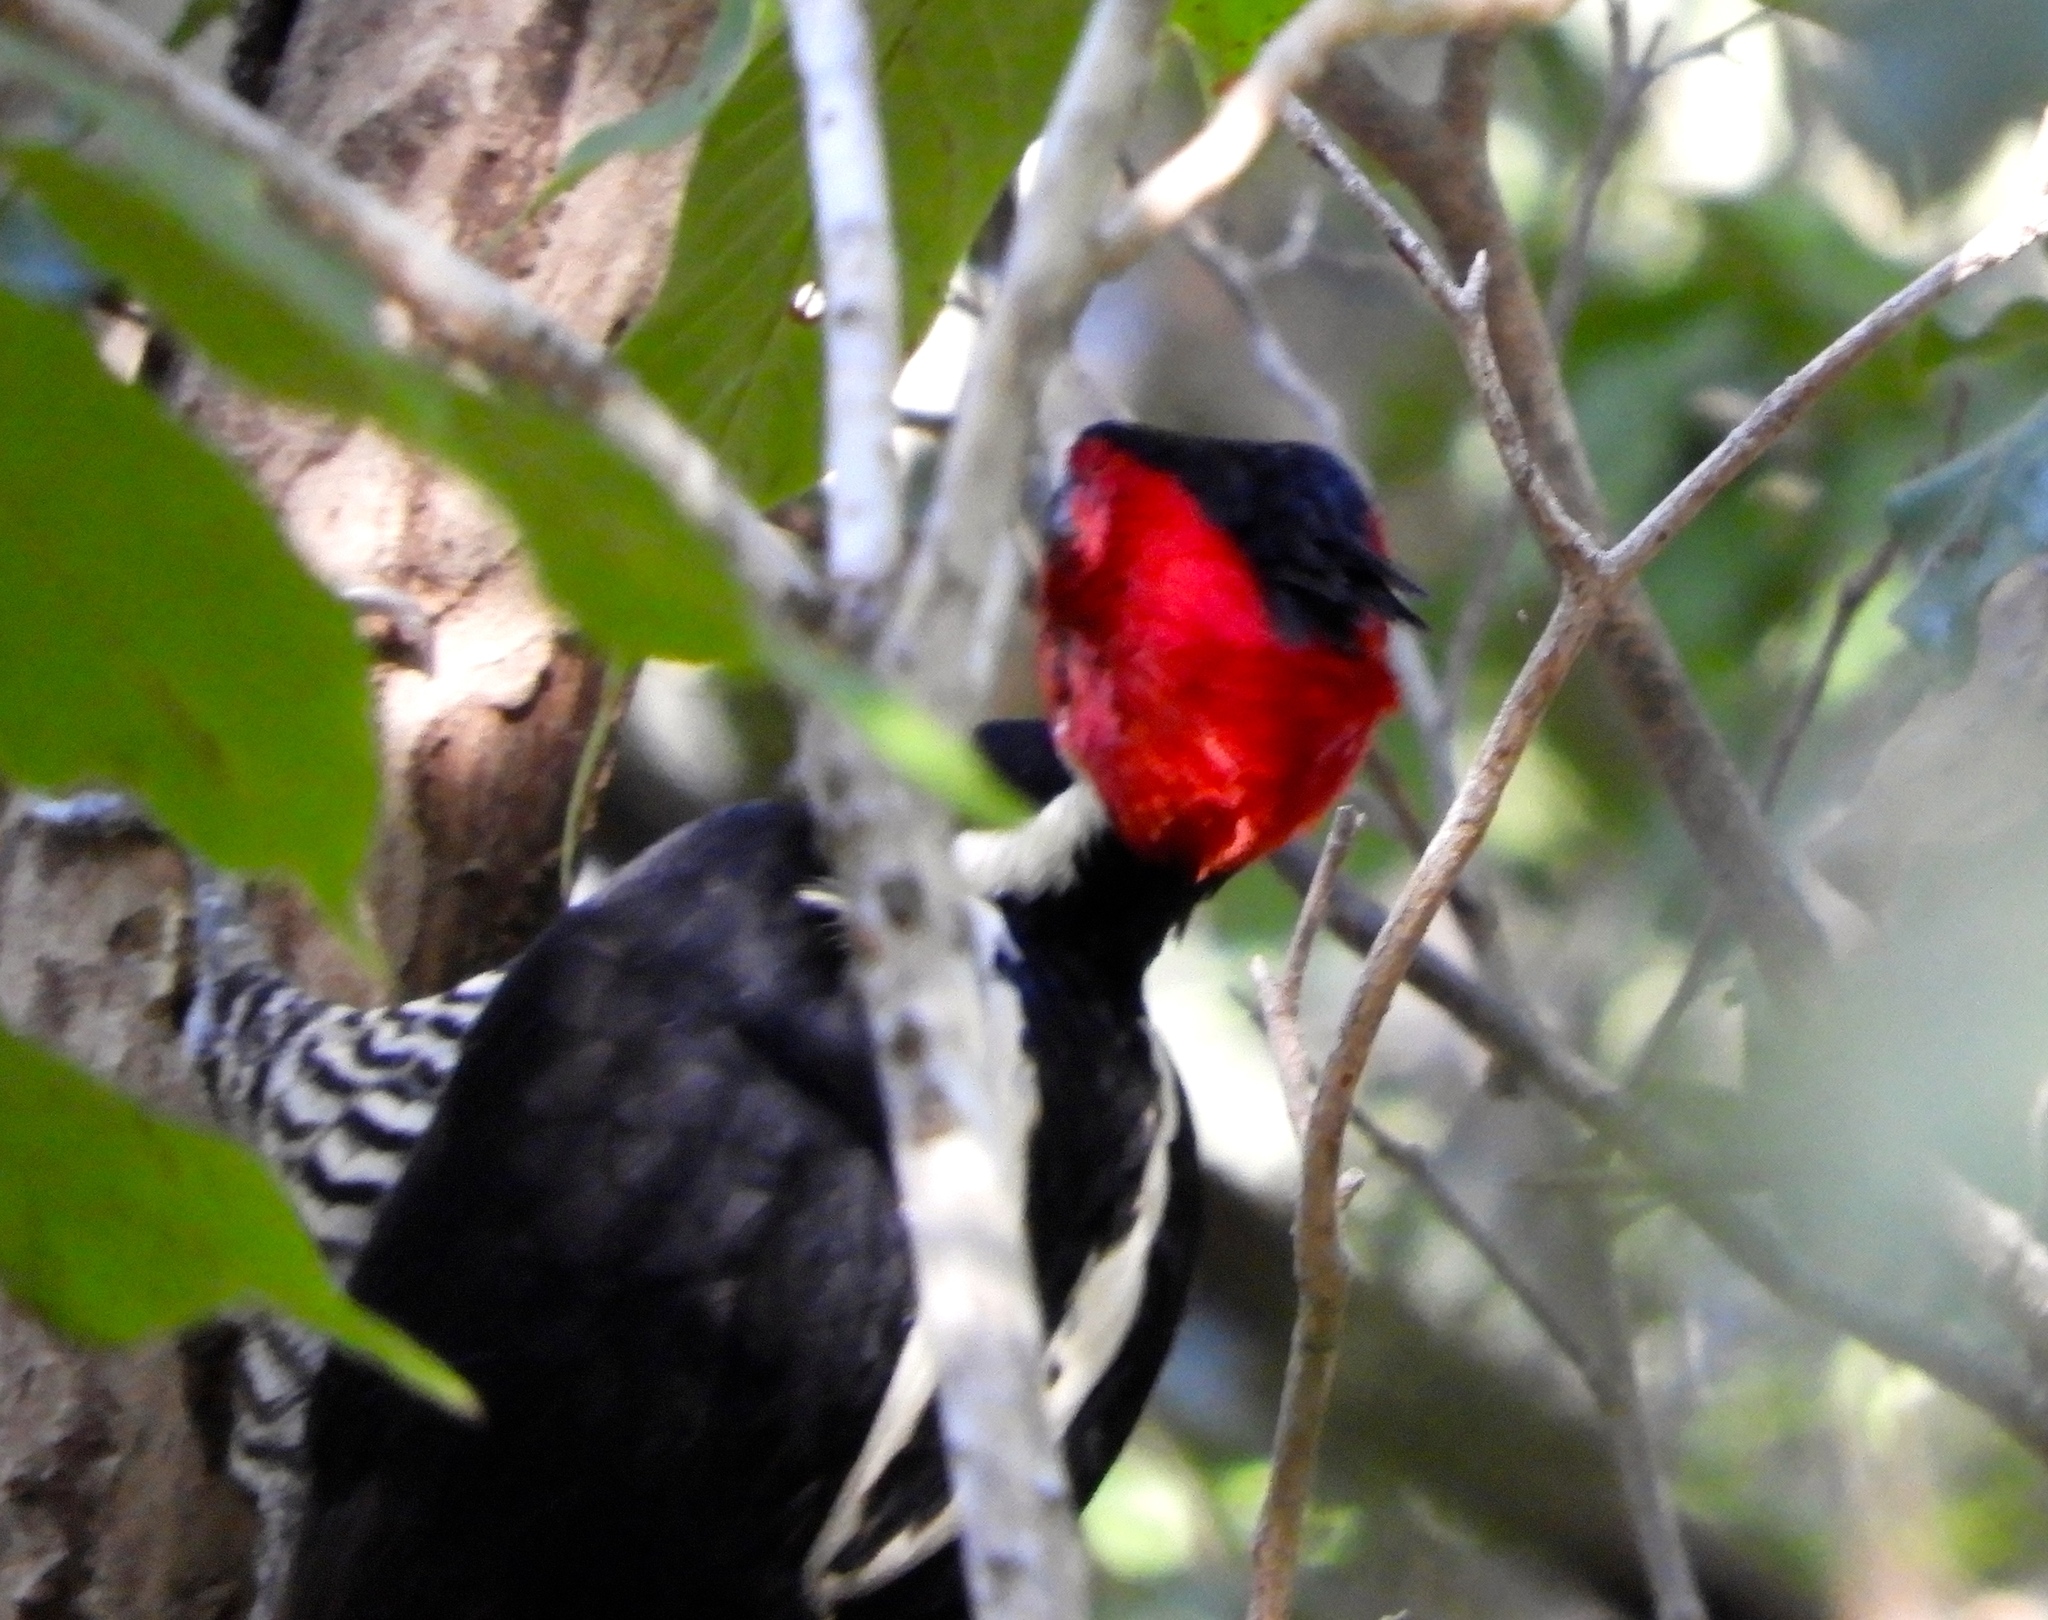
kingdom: Animalia
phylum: Chordata
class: Aves
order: Piciformes
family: Picidae
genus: Campephilus
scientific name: Campephilus guatemalensis
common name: Pale-billed woodpecker
